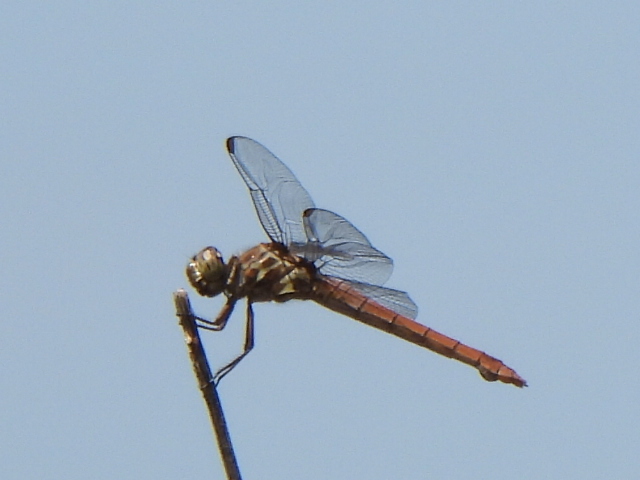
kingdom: Animalia
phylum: Arthropoda
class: Insecta
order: Odonata
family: Libellulidae
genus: Orthemis
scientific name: Orthemis ferruginea
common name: Roseate skimmer
